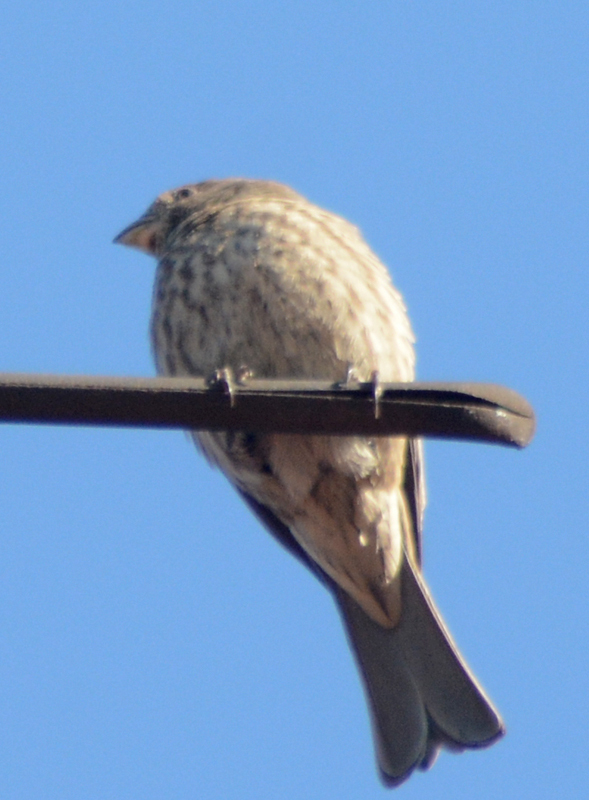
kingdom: Animalia
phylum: Chordata
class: Aves
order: Passeriformes
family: Fringillidae
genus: Haemorhous
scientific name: Haemorhous mexicanus
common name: House finch
